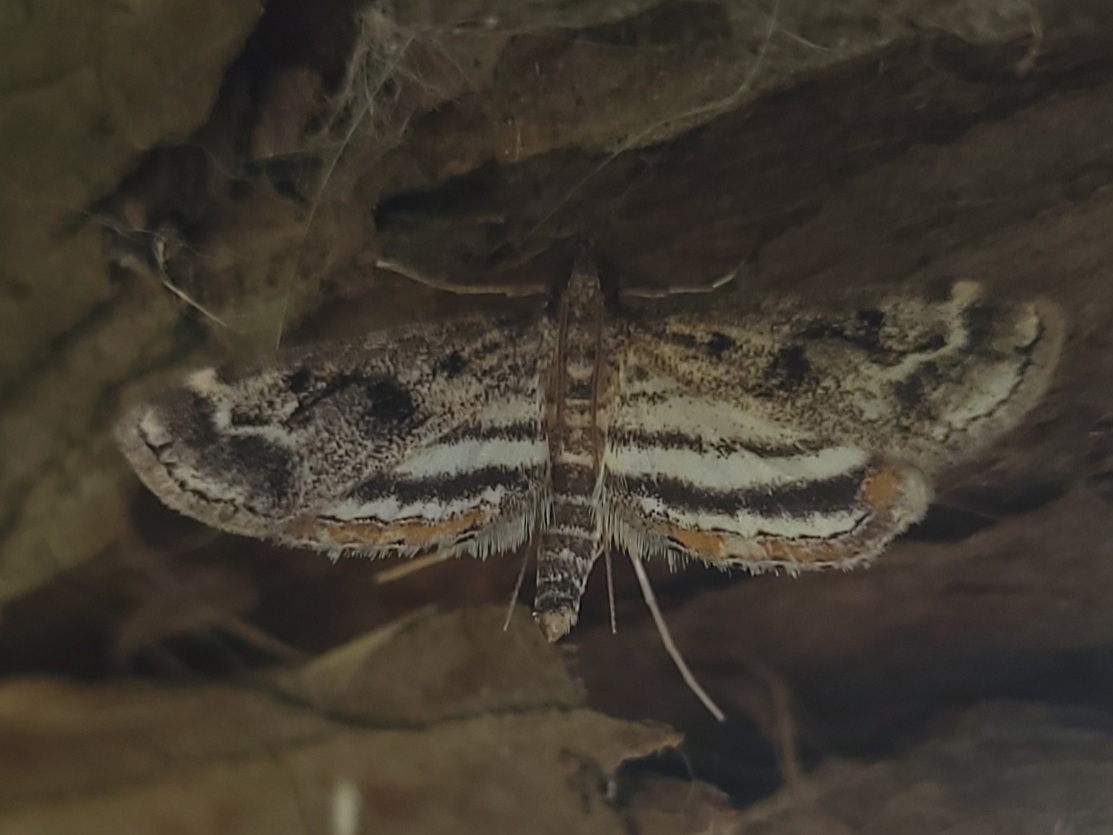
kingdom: Animalia
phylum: Arthropoda
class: Insecta
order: Lepidoptera
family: Crambidae
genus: Parapoynx
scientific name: Parapoynx obscuralis
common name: American china-mark
